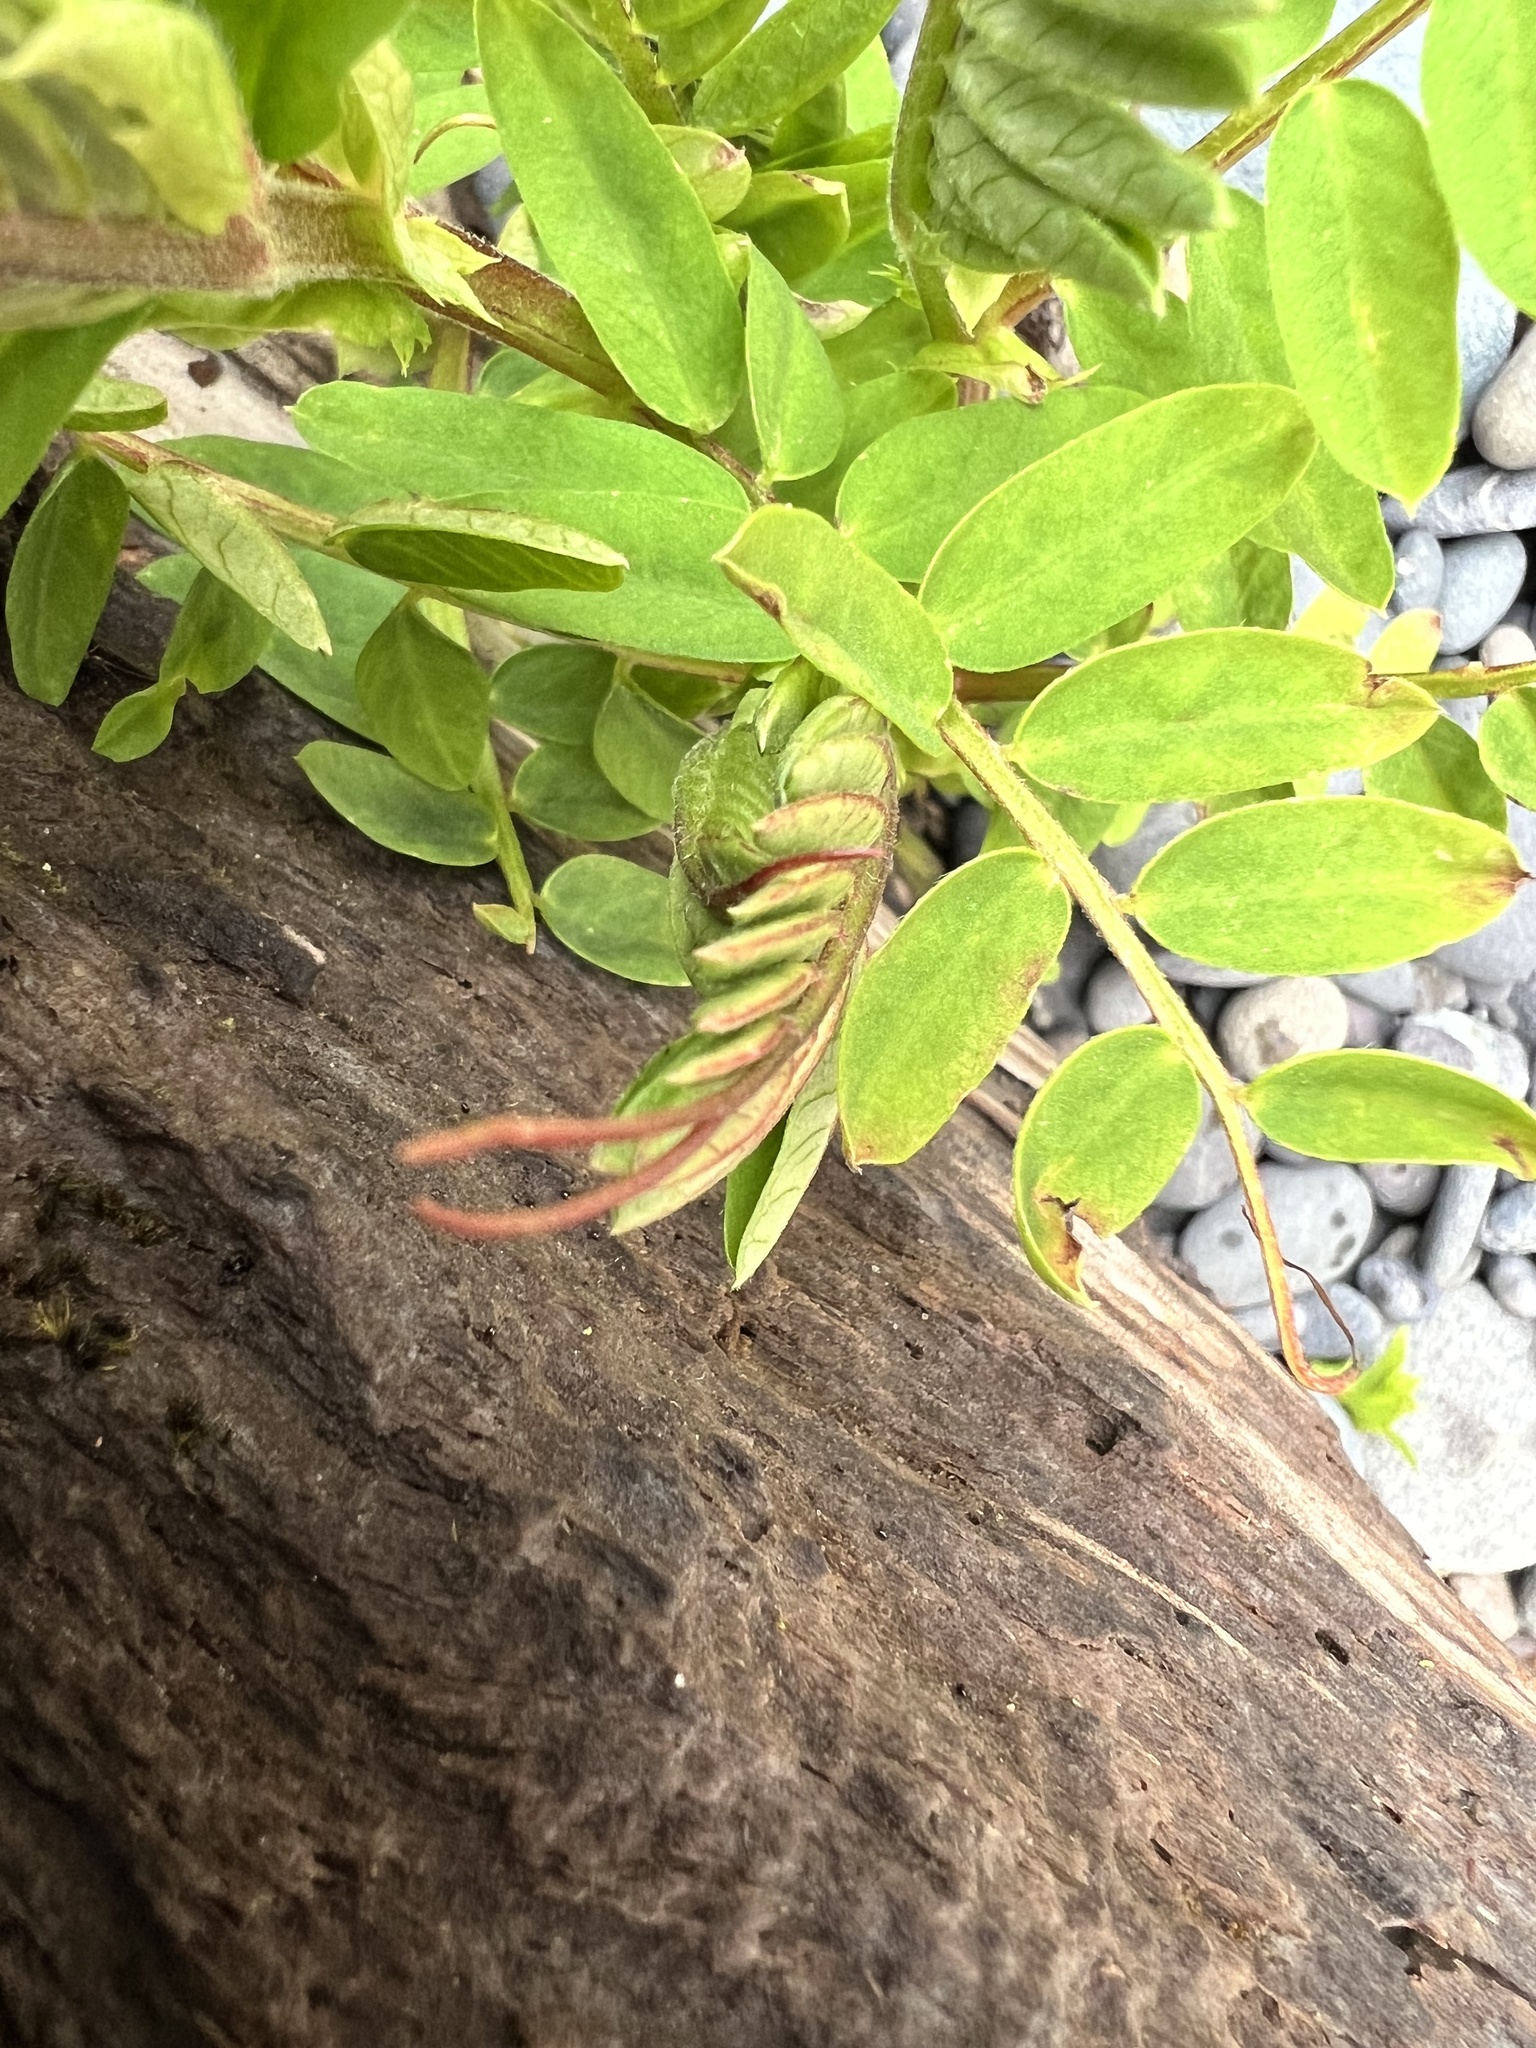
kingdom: Plantae
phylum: Tracheophyta
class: Magnoliopsida
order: Fabales
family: Fabaceae
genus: Vicia
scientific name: Vicia
